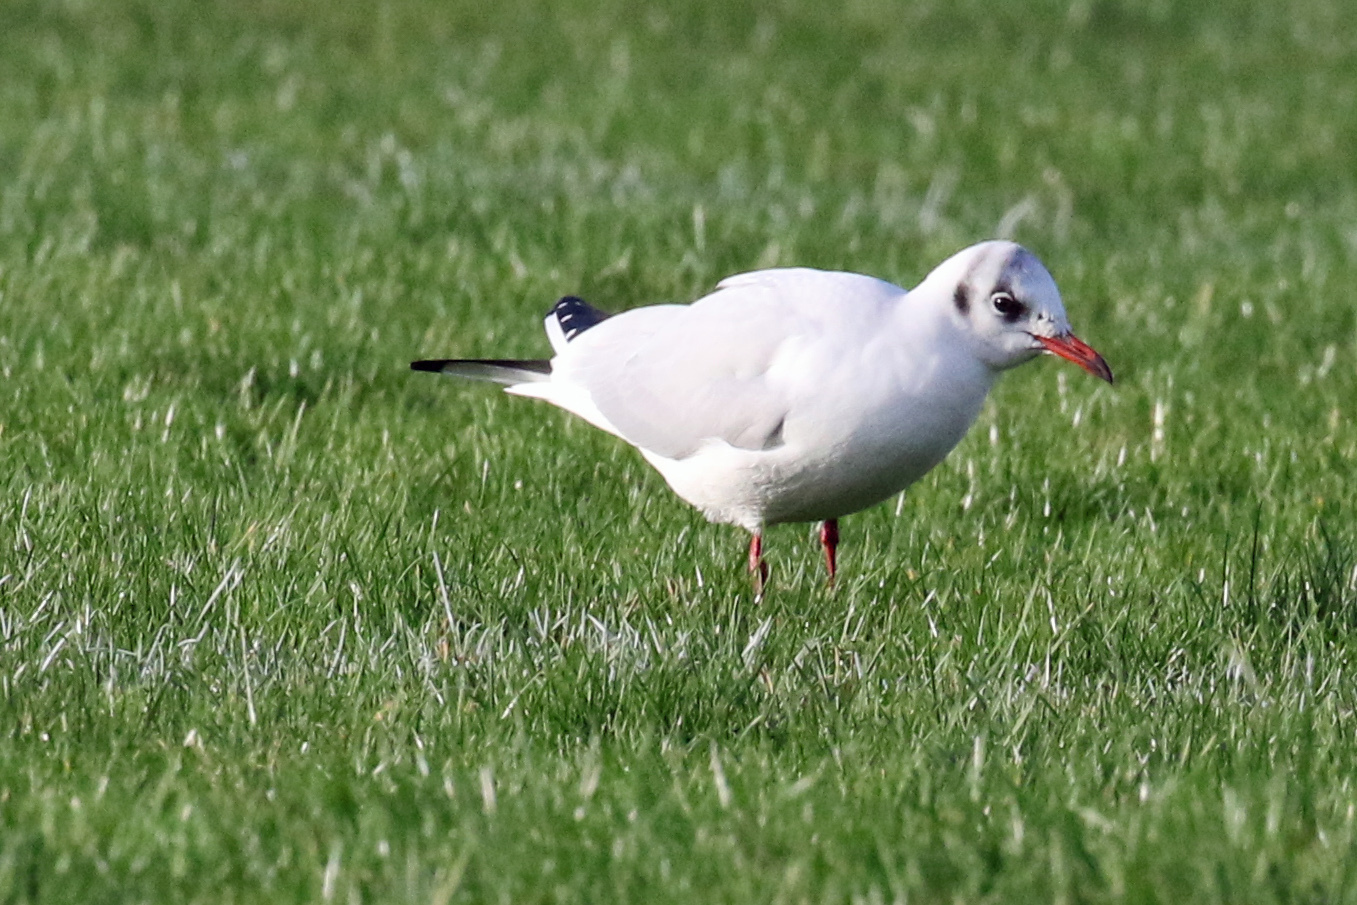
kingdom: Animalia
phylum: Chordata
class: Aves
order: Charadriiformes
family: Laridae
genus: Chroicocephalus
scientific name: Chroicocephalus ridibundus
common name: Black-headed gull
